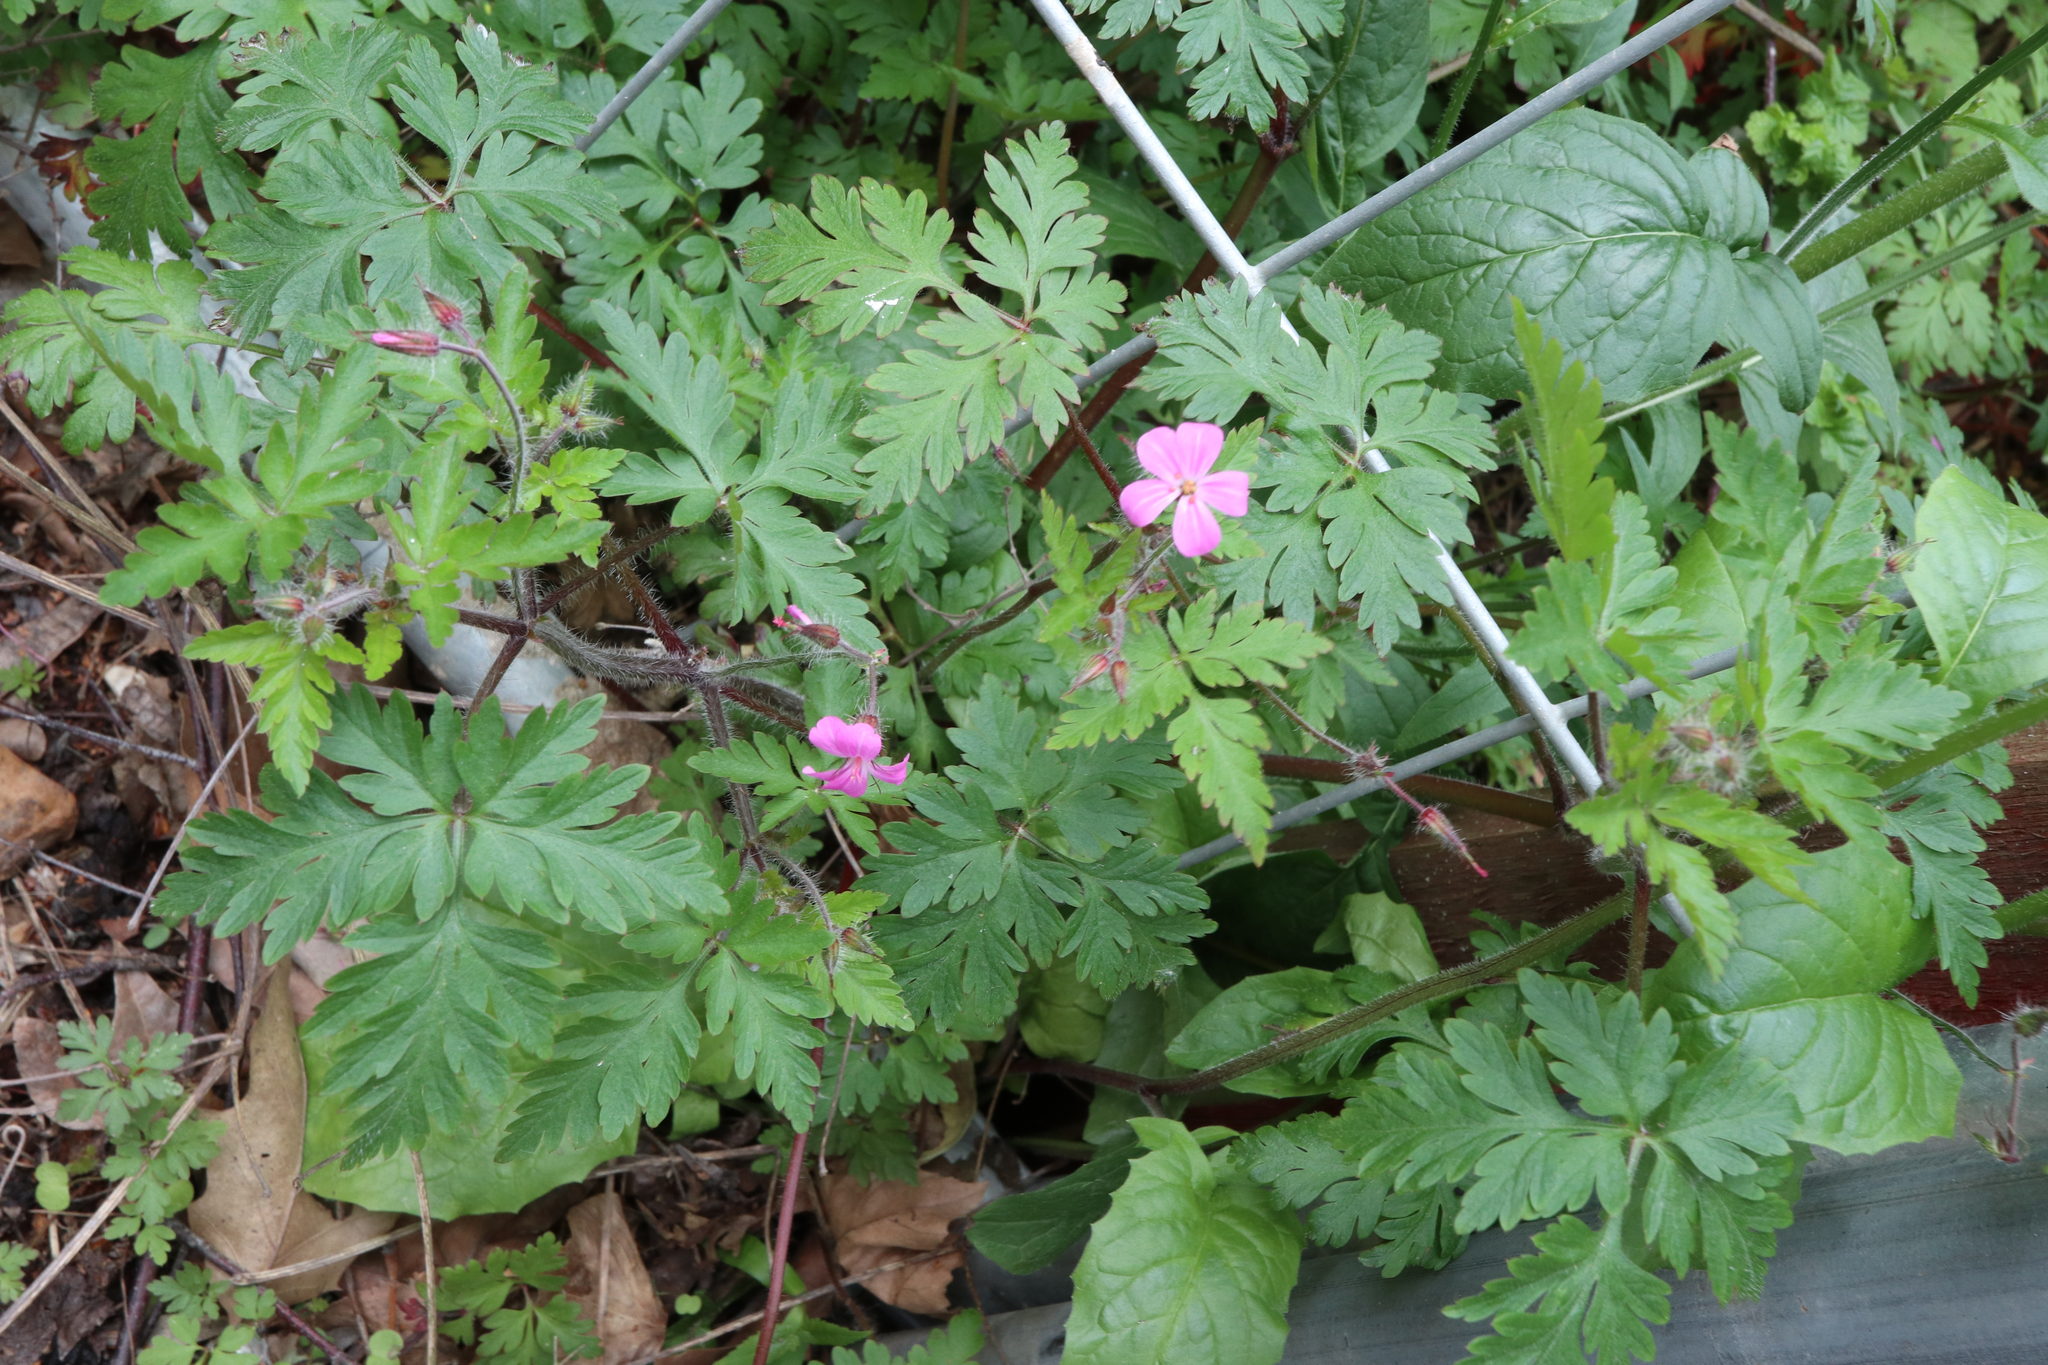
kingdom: Plantae
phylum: Tracheophyta
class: Magnoliopsida
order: Geraniales
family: Geraniaceae
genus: Geranium
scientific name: Geranium robertianum
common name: Herb-robert
